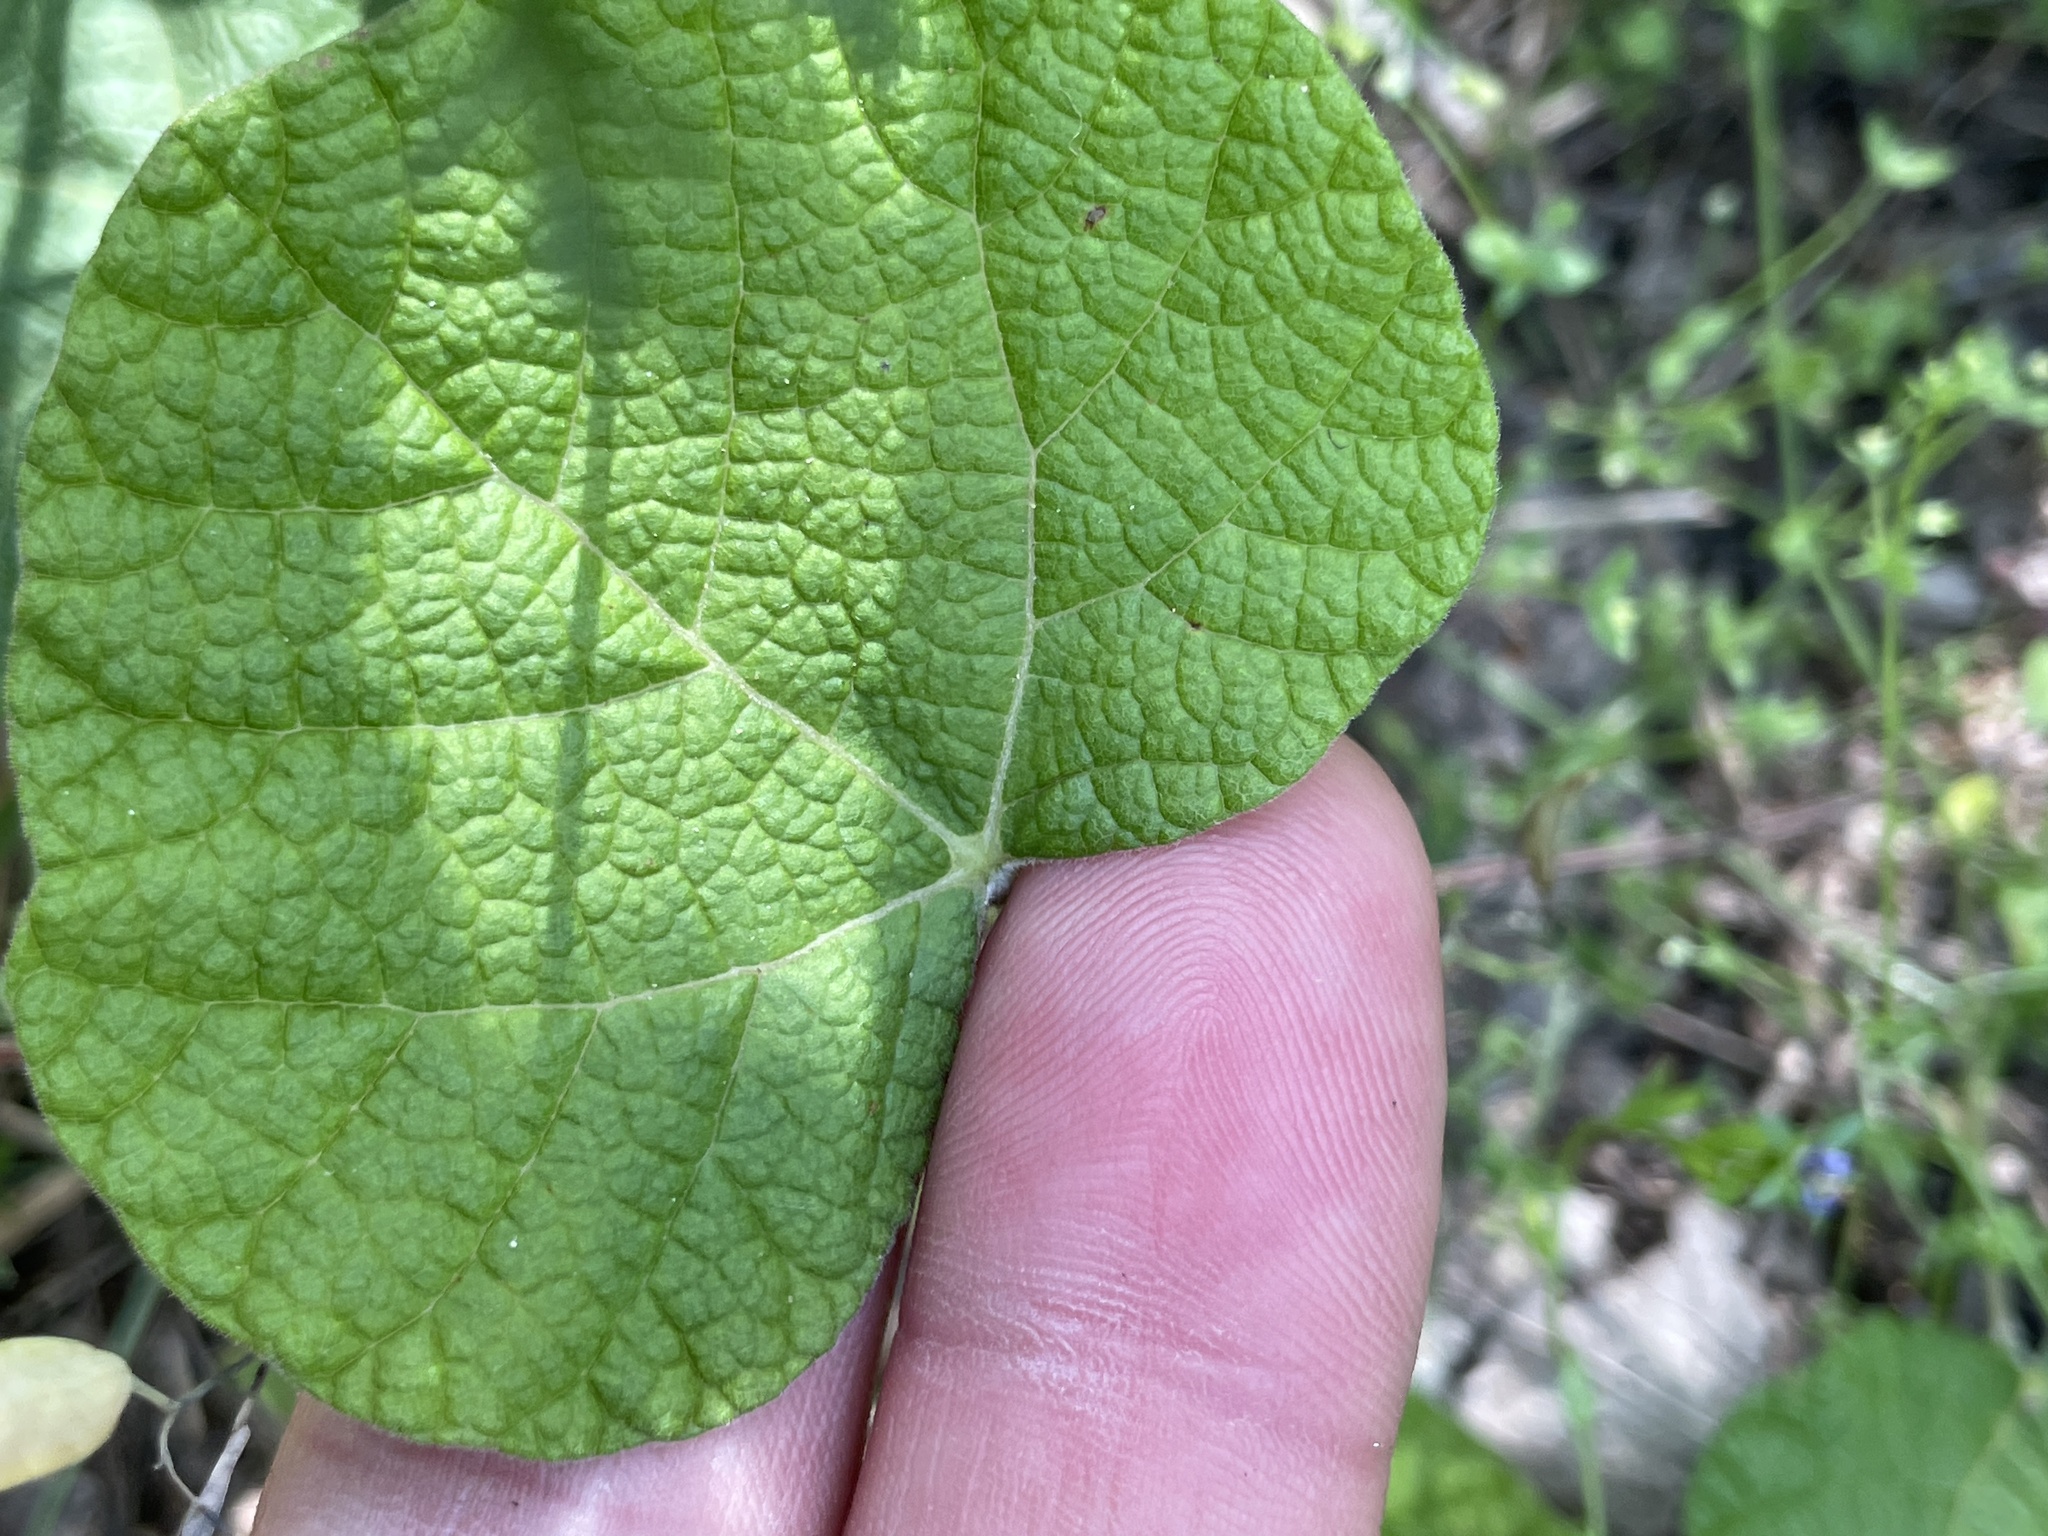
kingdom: Plantae
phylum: Tracheophyta
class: Magnoliopsida
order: Fabales
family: Fabaceae
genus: Rhynchosia
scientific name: Rhynchosia americana
